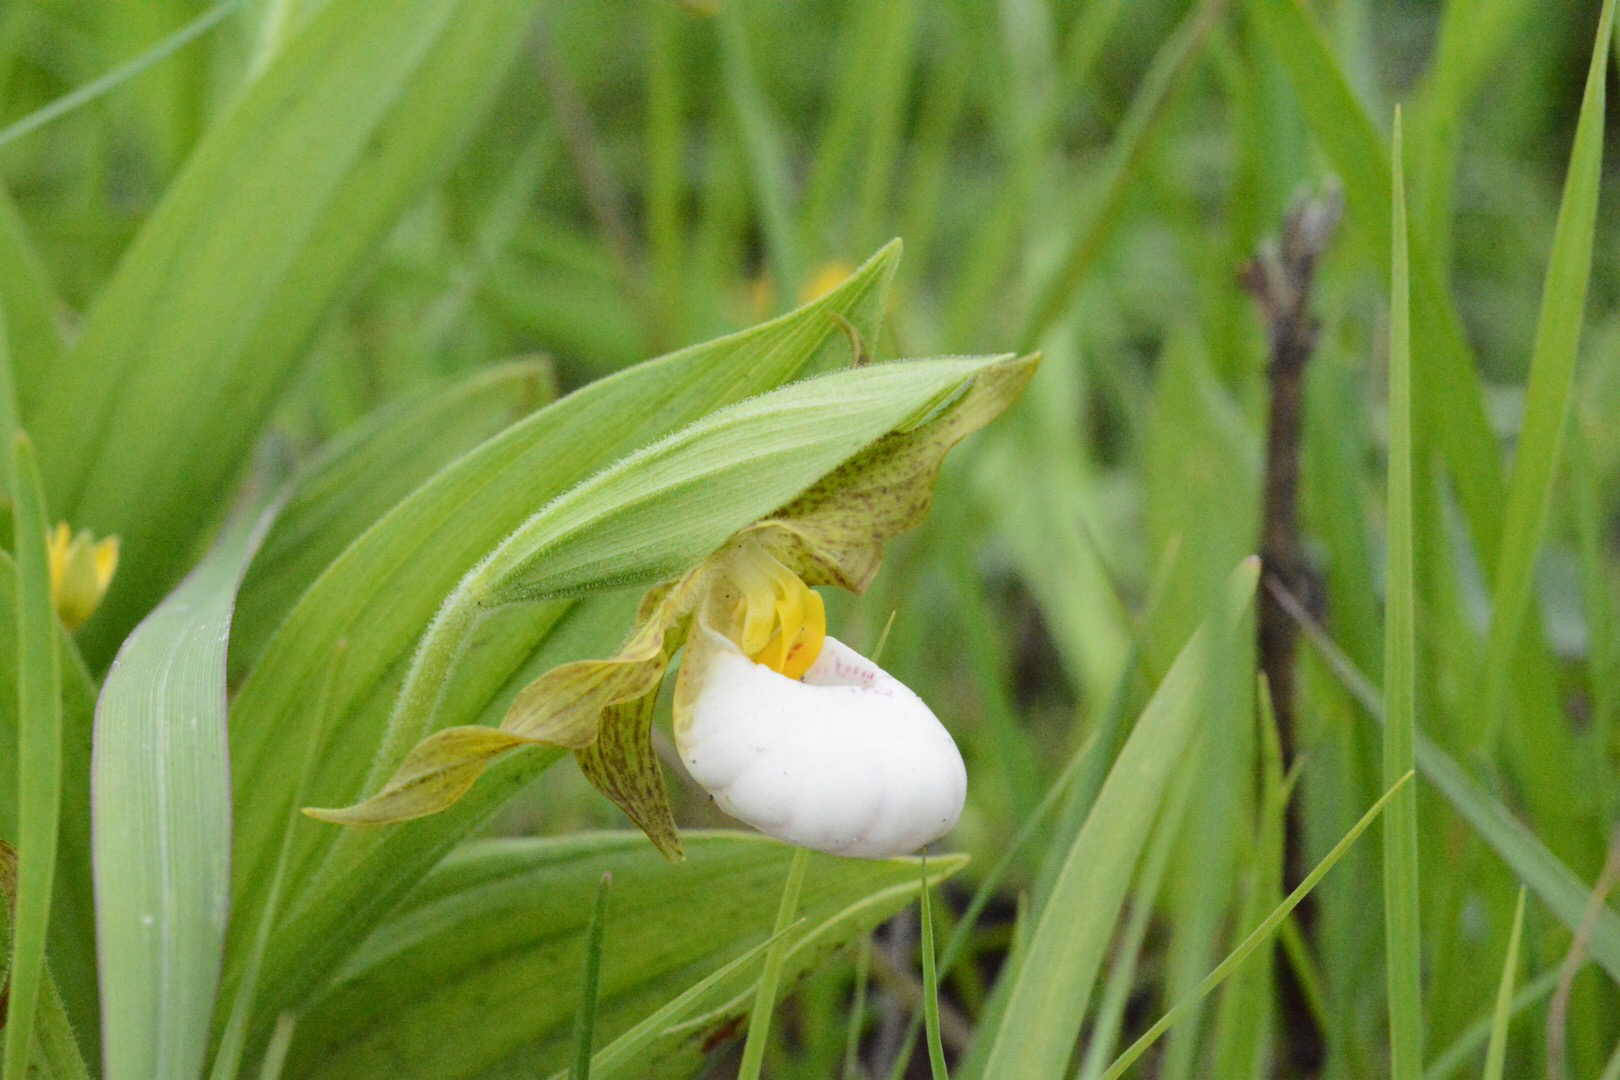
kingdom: Plantae
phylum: Tracheophyta
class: Liliopsida
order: Asparagales
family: Orchidaceae
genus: Cypripedium
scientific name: Cypripedium candidum
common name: White lady's-slipper
